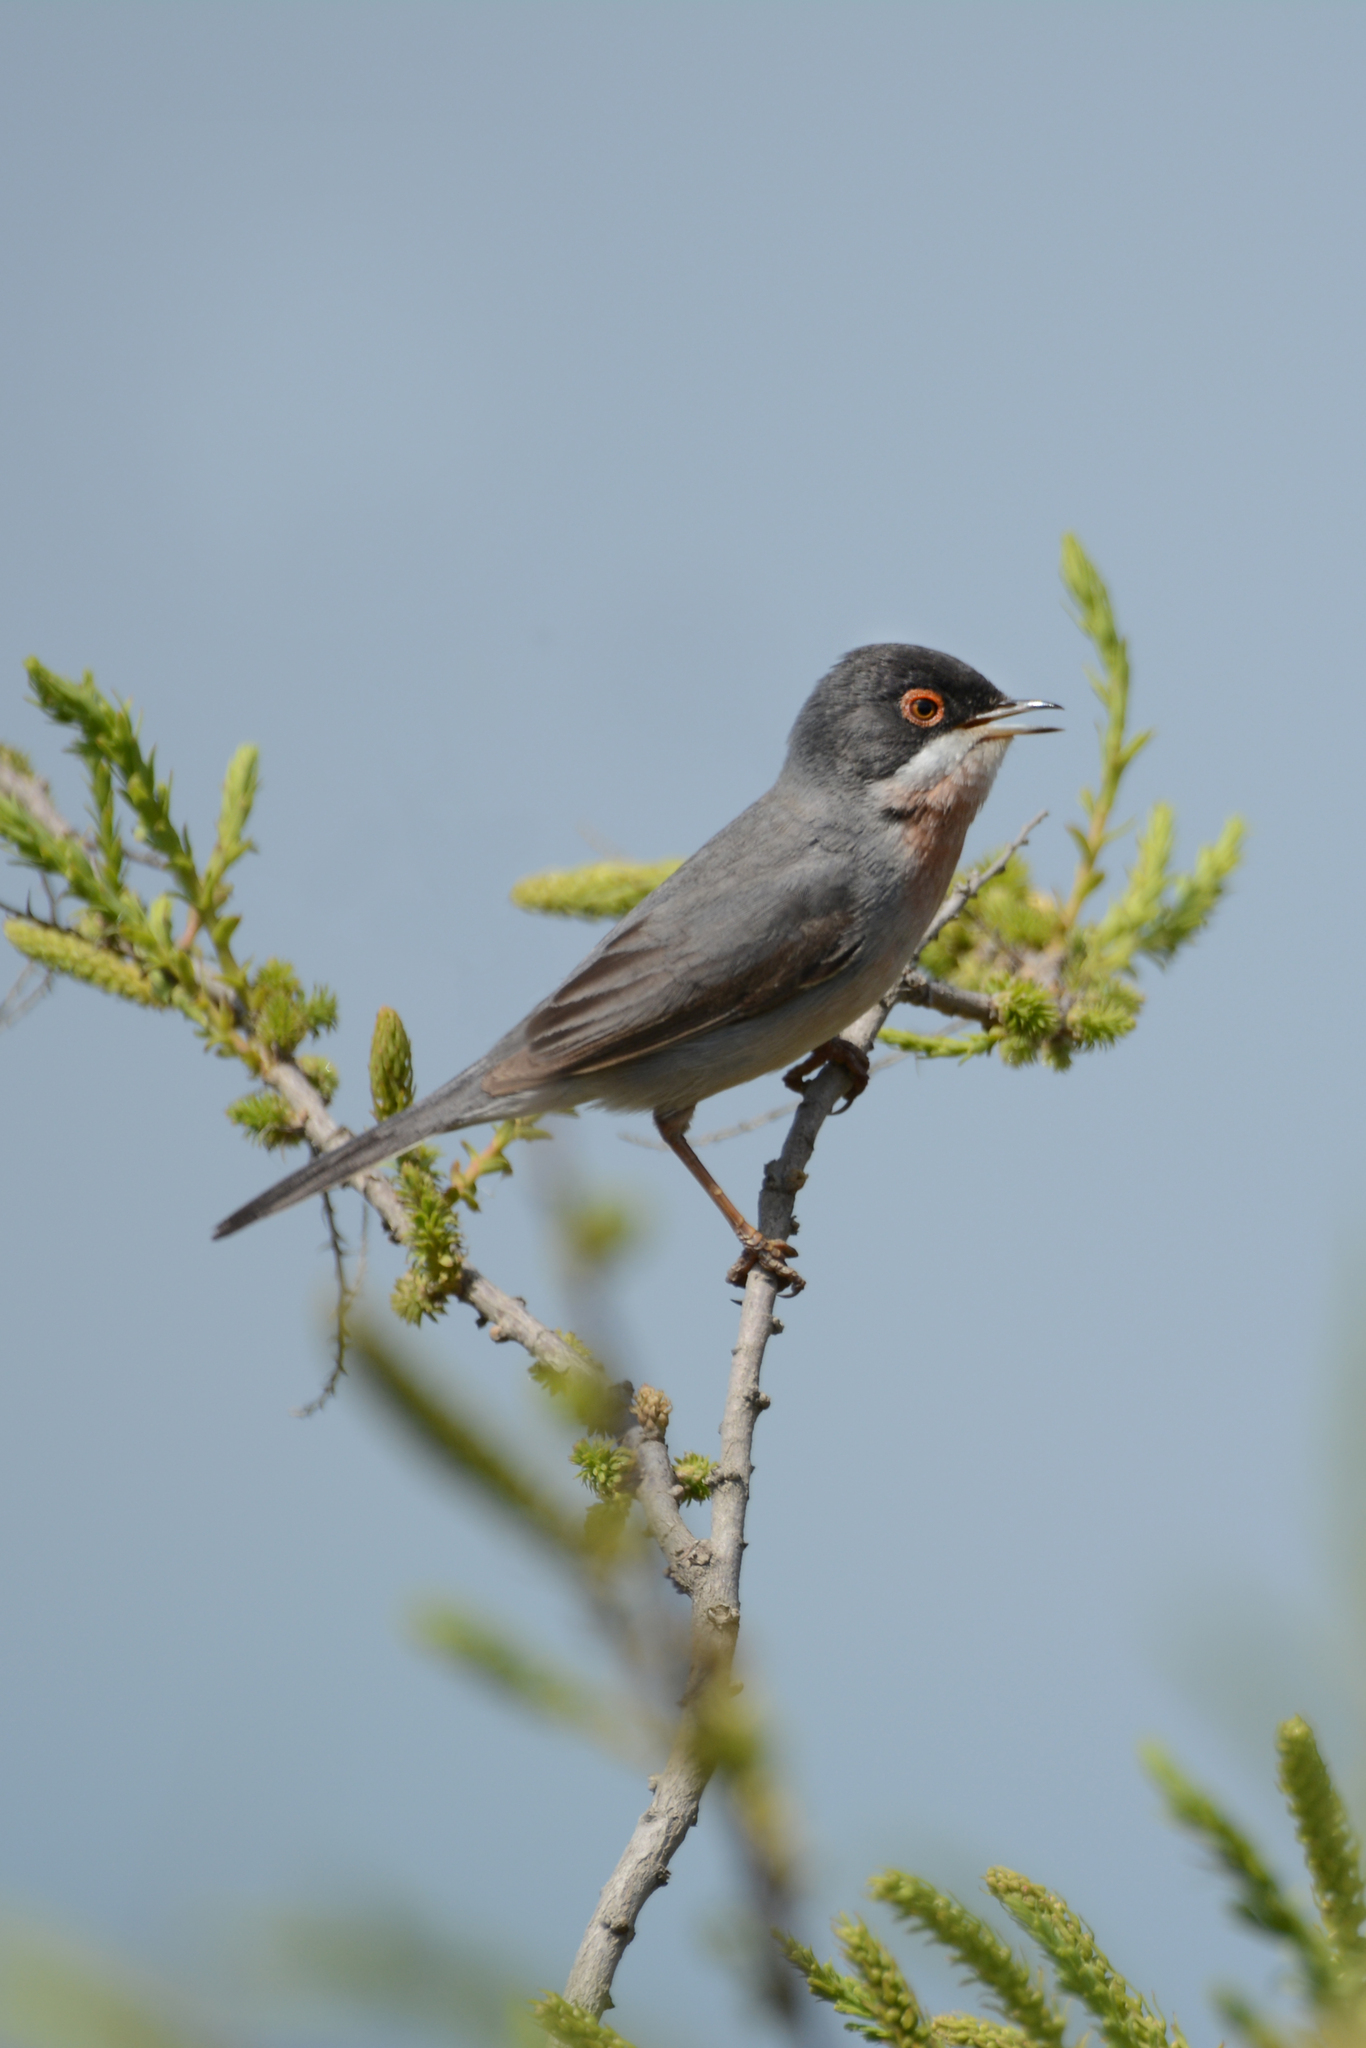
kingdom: Animalia
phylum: Chordata
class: Aves
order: Passeriformes
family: Sylviidae
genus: Sylvia
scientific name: Sylvia mystacea
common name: Menetries's warbler
